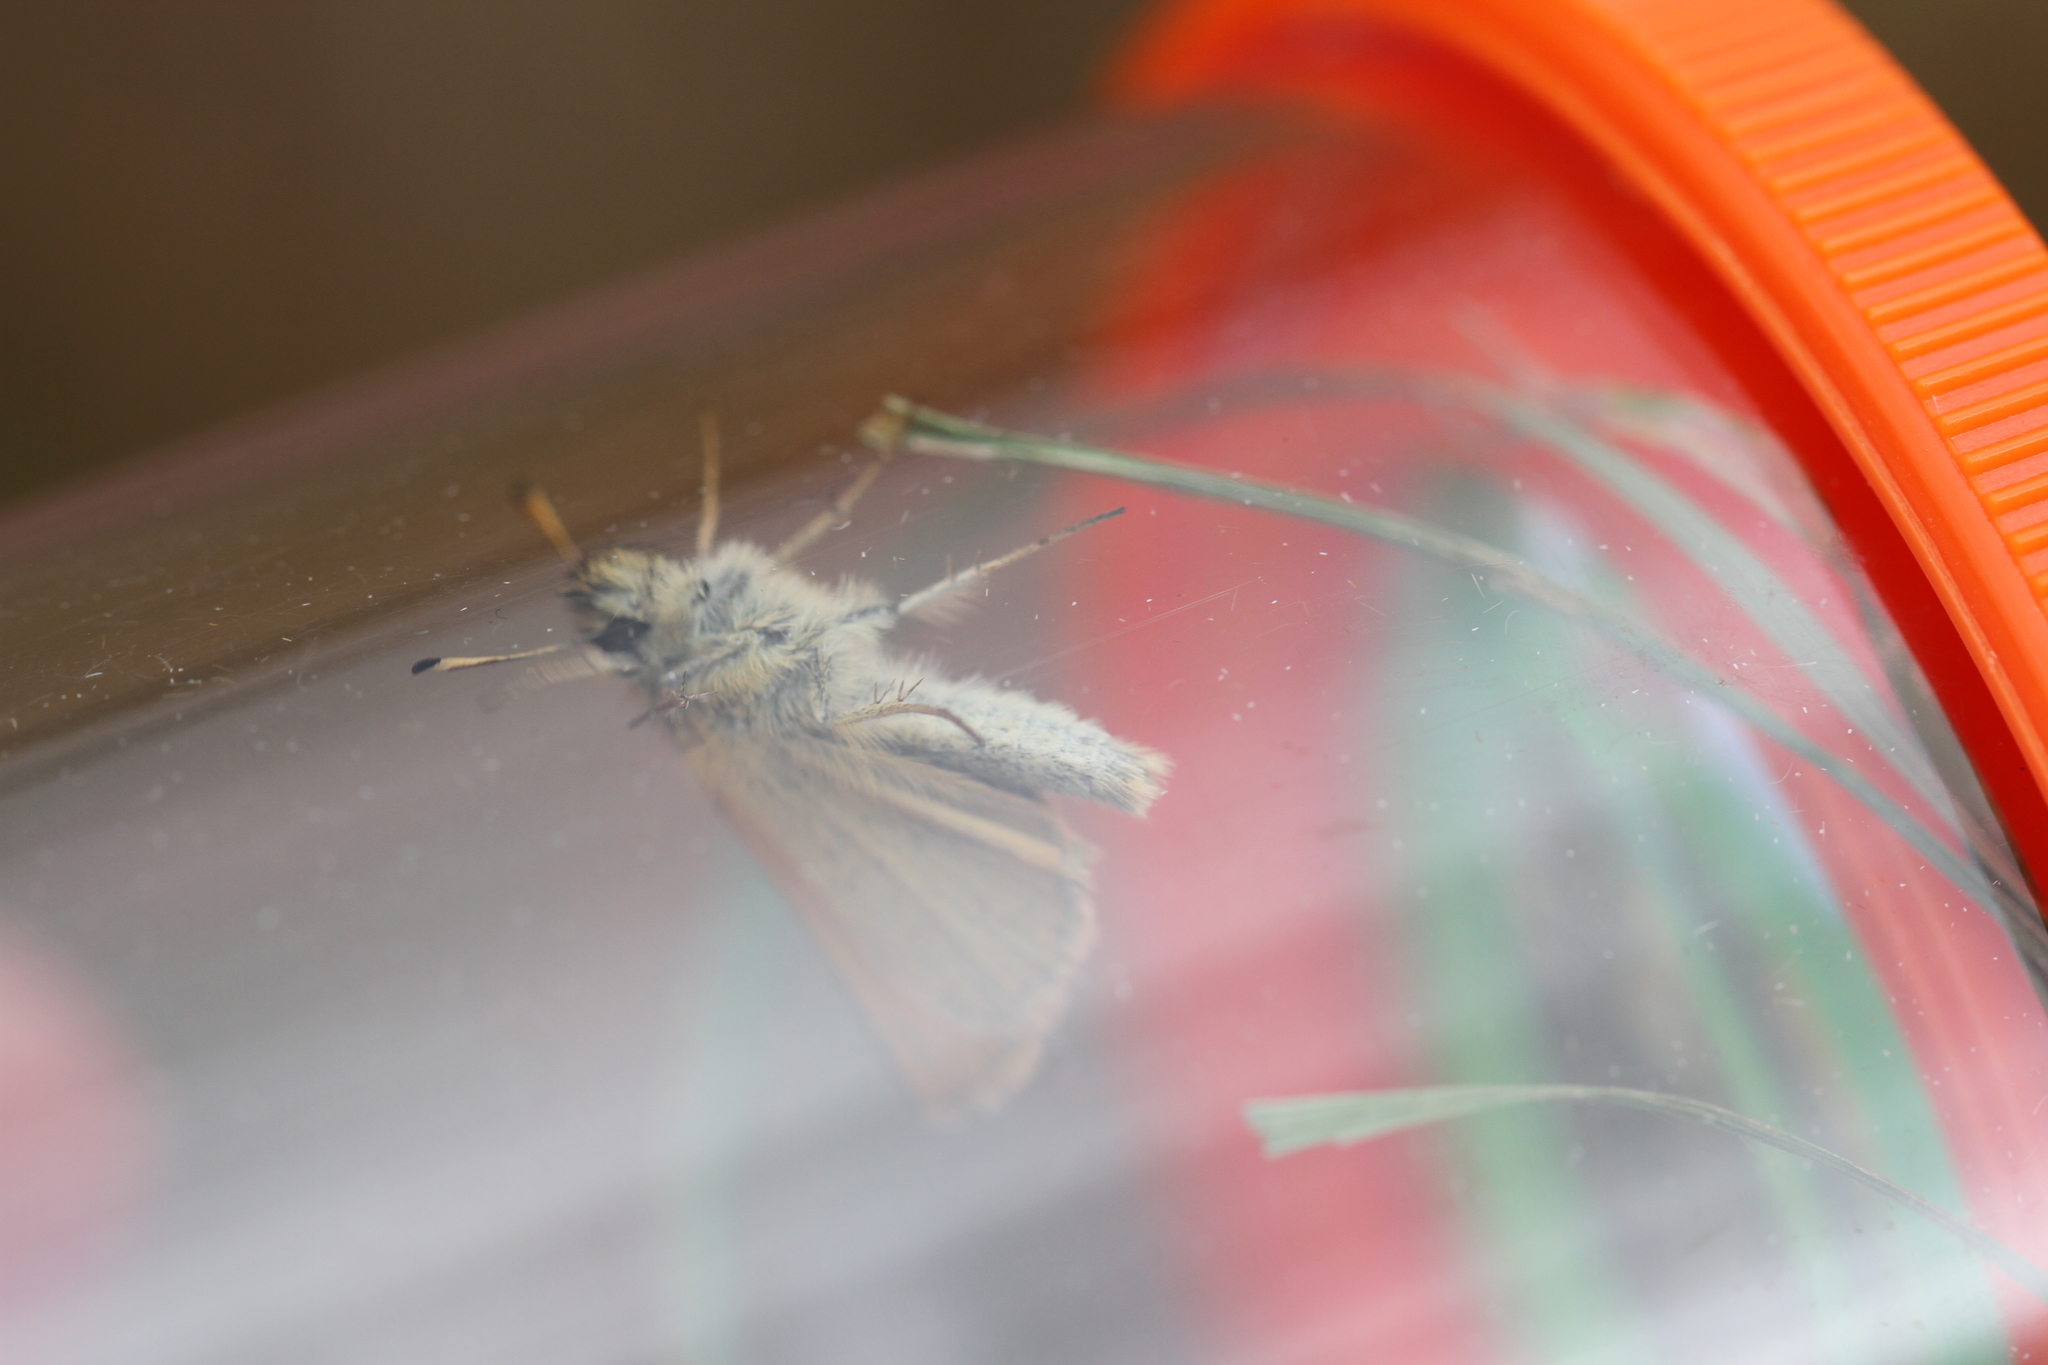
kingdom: Animalia
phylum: Arthropoda
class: Insecta
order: Lepidoptera
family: Hesperiidae
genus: Thymelicus
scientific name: Thymelicus lineola
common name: Essex skipper
